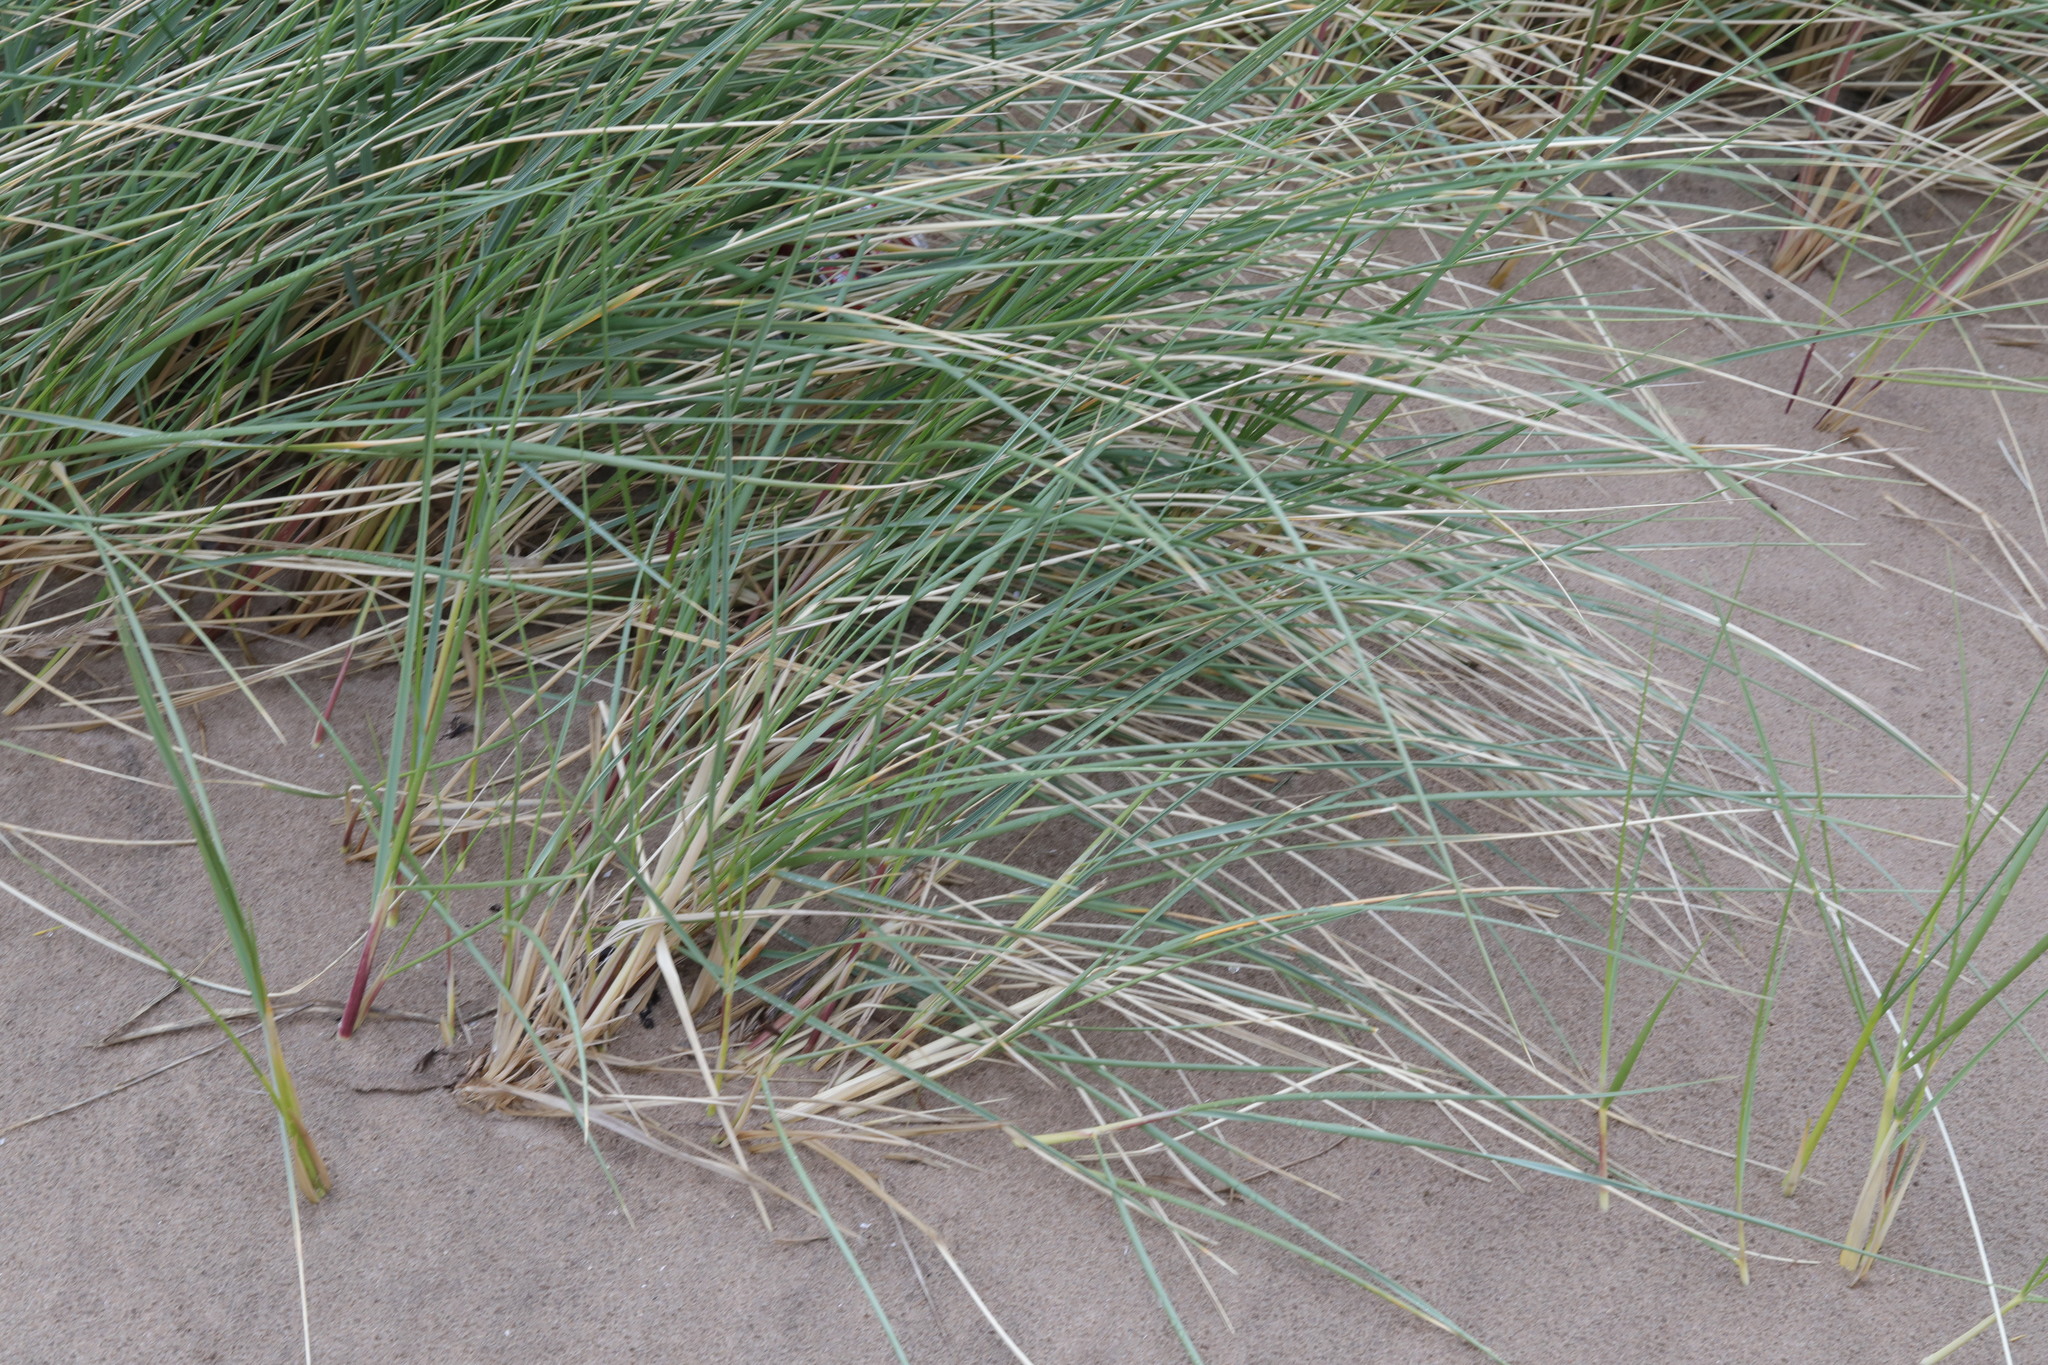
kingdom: Plantae
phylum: Tracheophyta
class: Liliopsida
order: Poales
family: Poaceae
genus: Calamagrostis
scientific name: Calamagrostis arenaria
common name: European beachgrass
